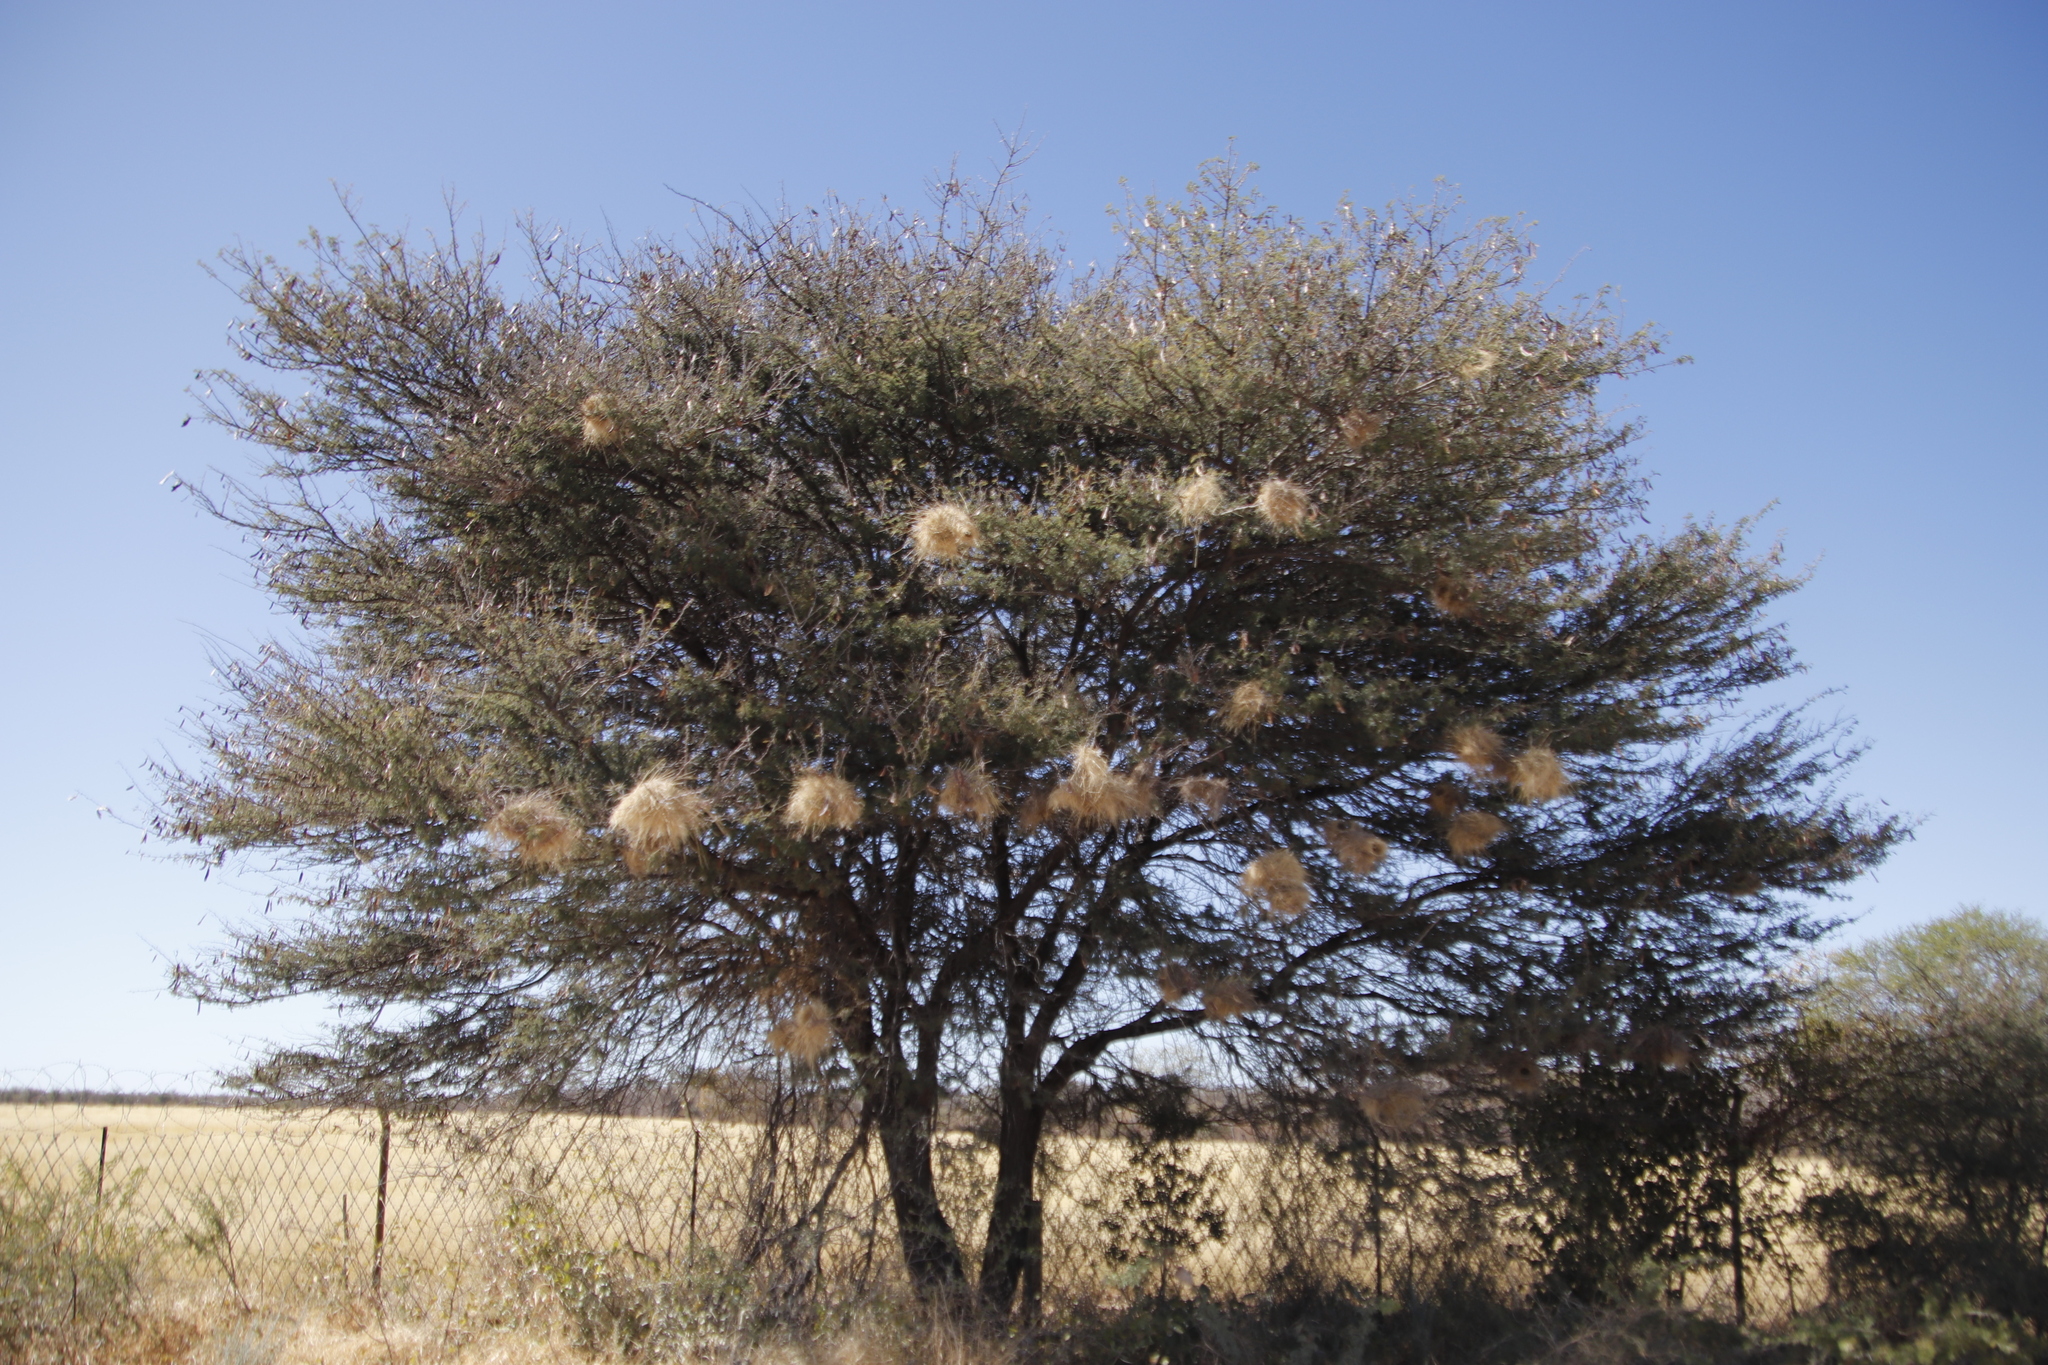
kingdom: Animalia
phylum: Chordata
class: Aves
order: Passeriformes
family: Passeridae
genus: Plocepasser
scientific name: Plocepasser mahali
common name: White-browed sparrow-weaver
